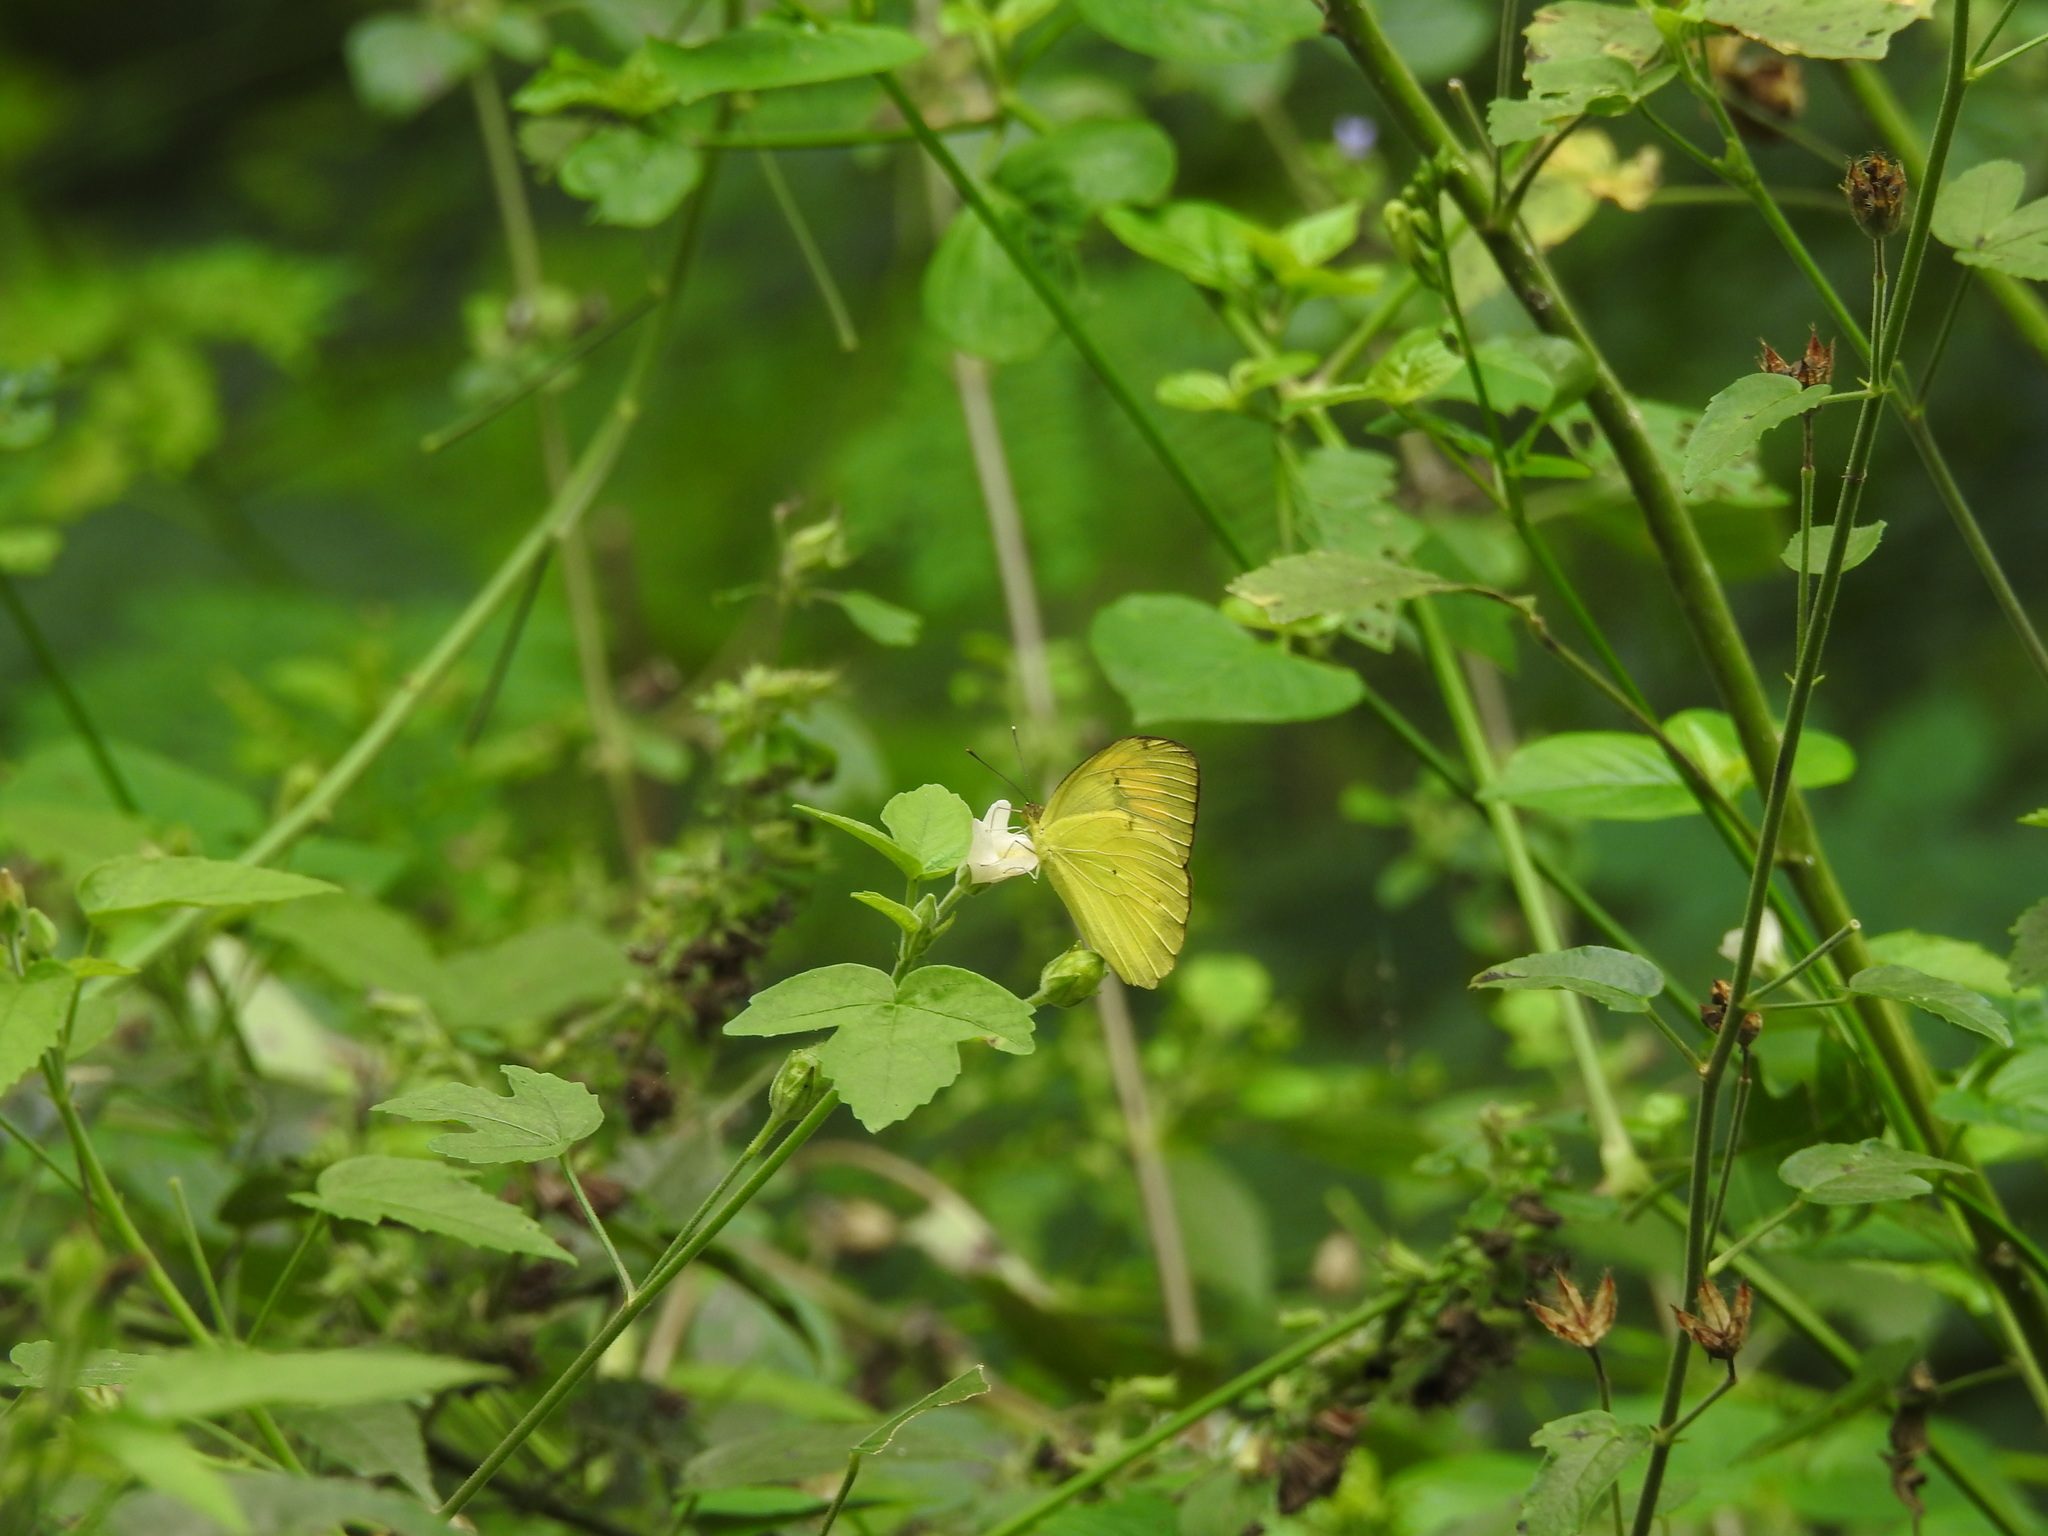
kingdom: Animalia
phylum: Arthropoda
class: Insecta
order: Lepidoptera
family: Pieridae
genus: Ixias
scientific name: Ixias pyrene
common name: Yellow orange tip
